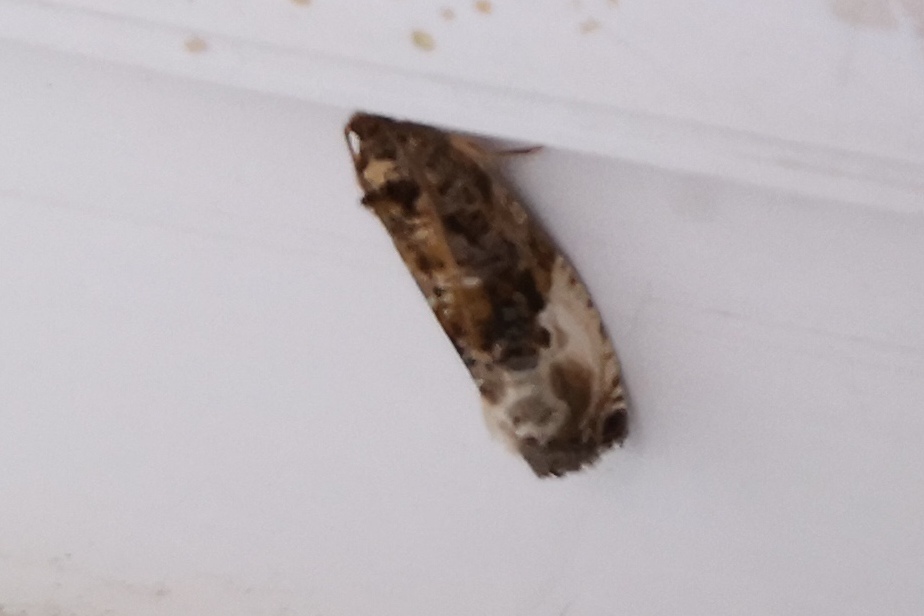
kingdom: Animalia
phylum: Arthropoda
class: Insecta
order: Lepidoptera
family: Tortricidae
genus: Hedya
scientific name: Hedya nubiferana
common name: Marbled orchard tortrix
